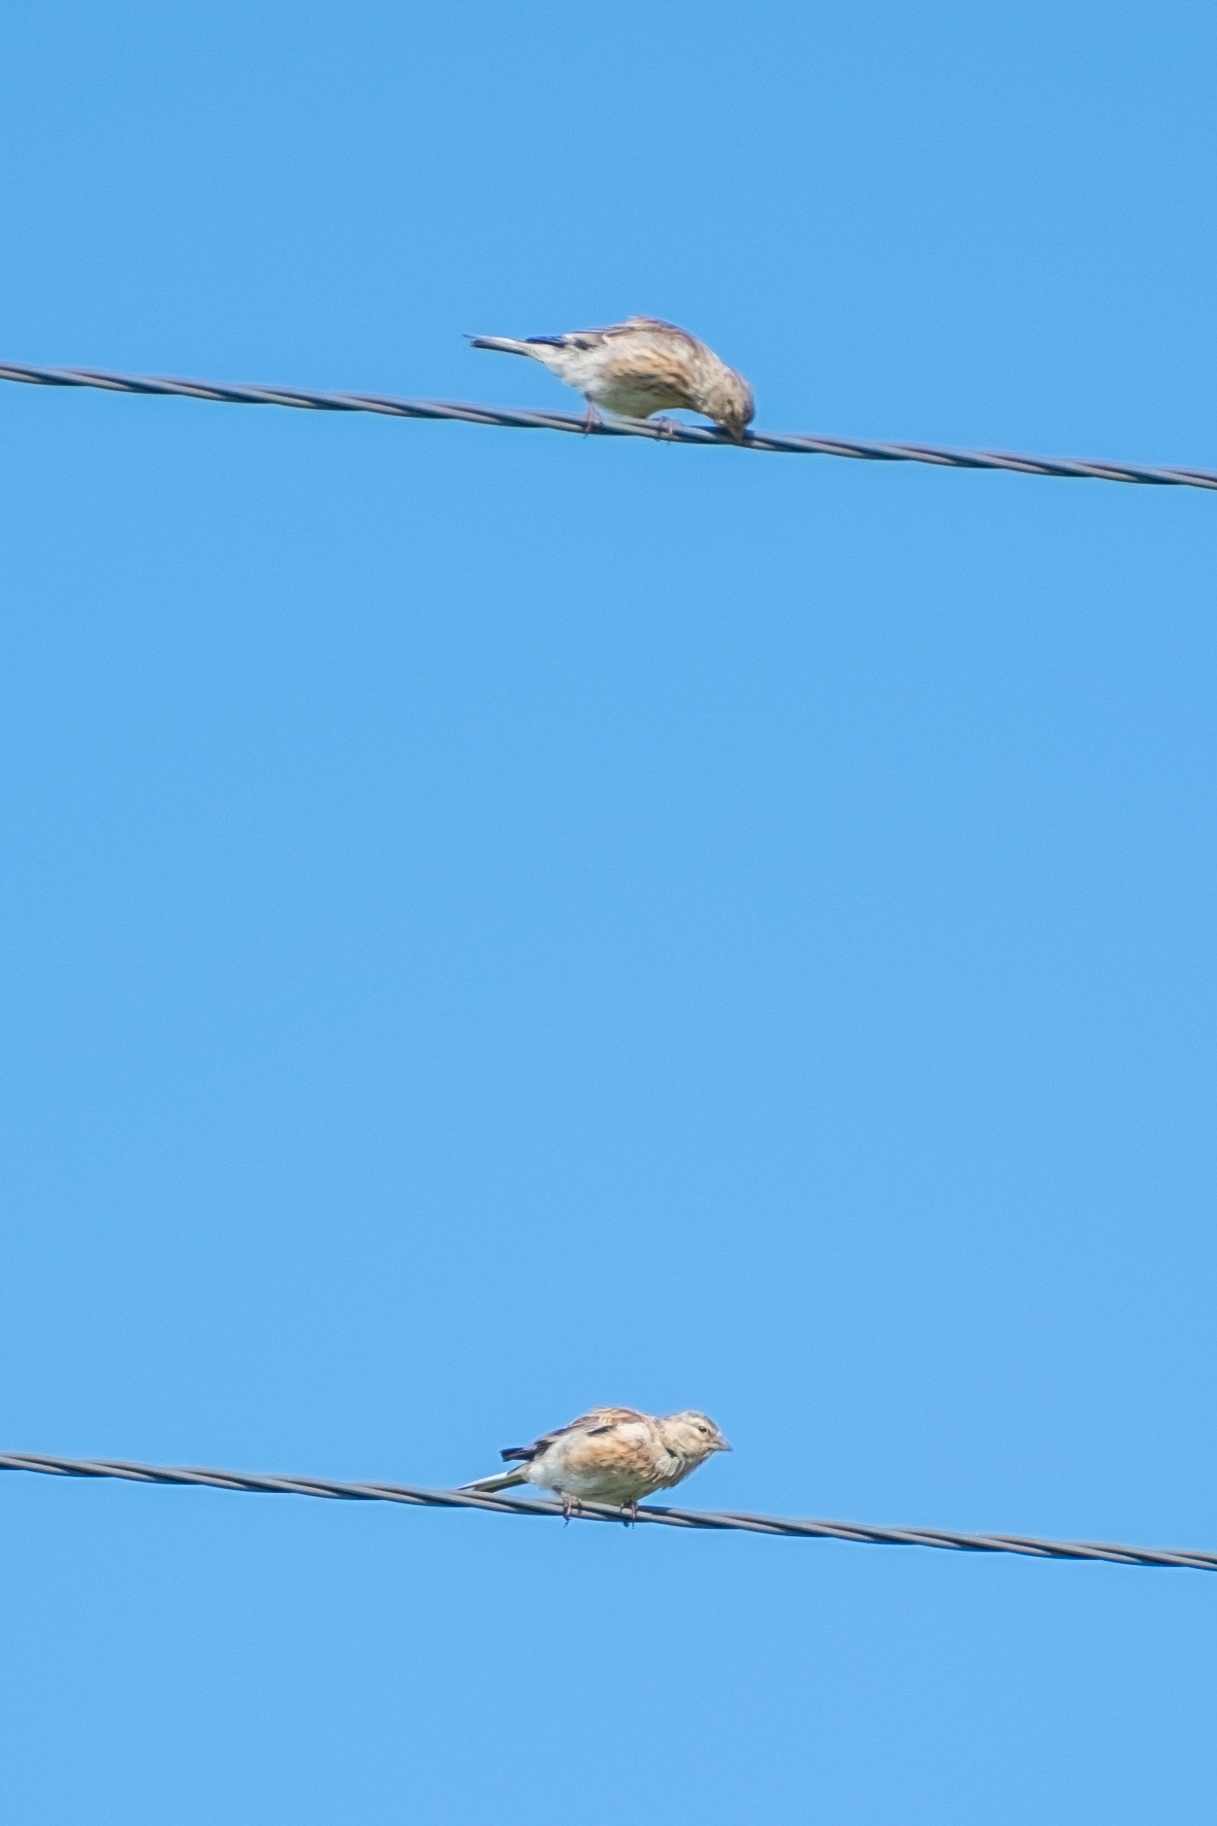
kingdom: Animalia
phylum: Chordata
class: Aves
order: Passeriformes
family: Fringillidae
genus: Linaria
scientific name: Linaria cannabina
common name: Common linnet
